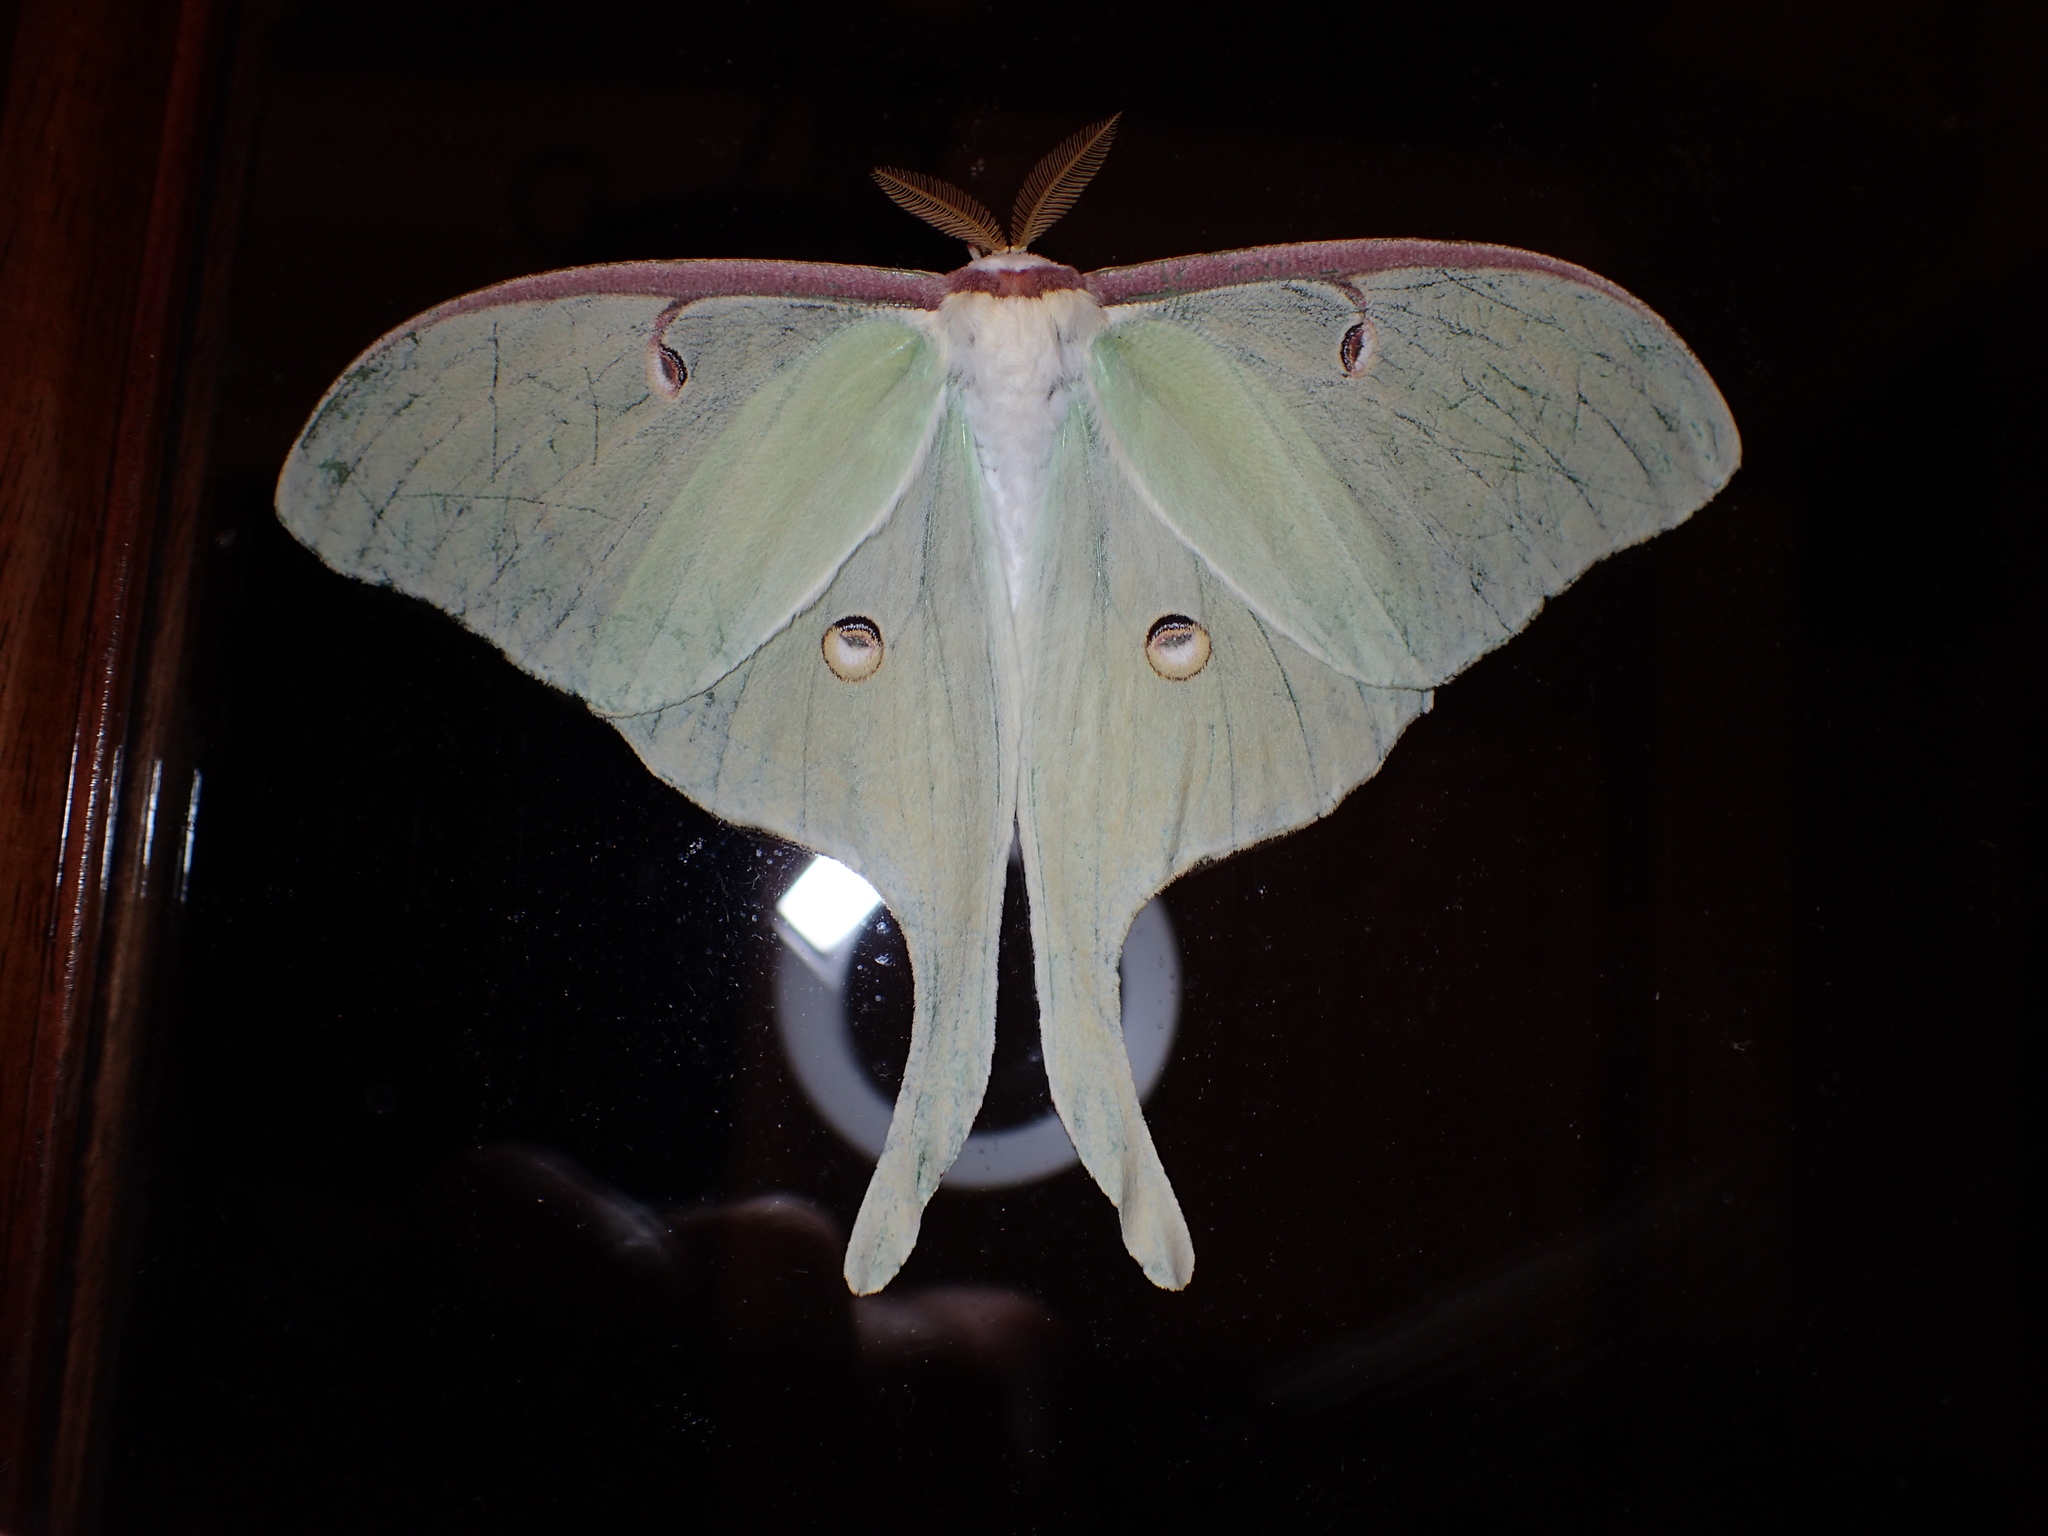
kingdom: Animalia
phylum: Arthropoda
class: Insecta
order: Lepidoptera
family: Saturniidae
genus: Actias
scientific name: Actias luna
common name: Luna moth
